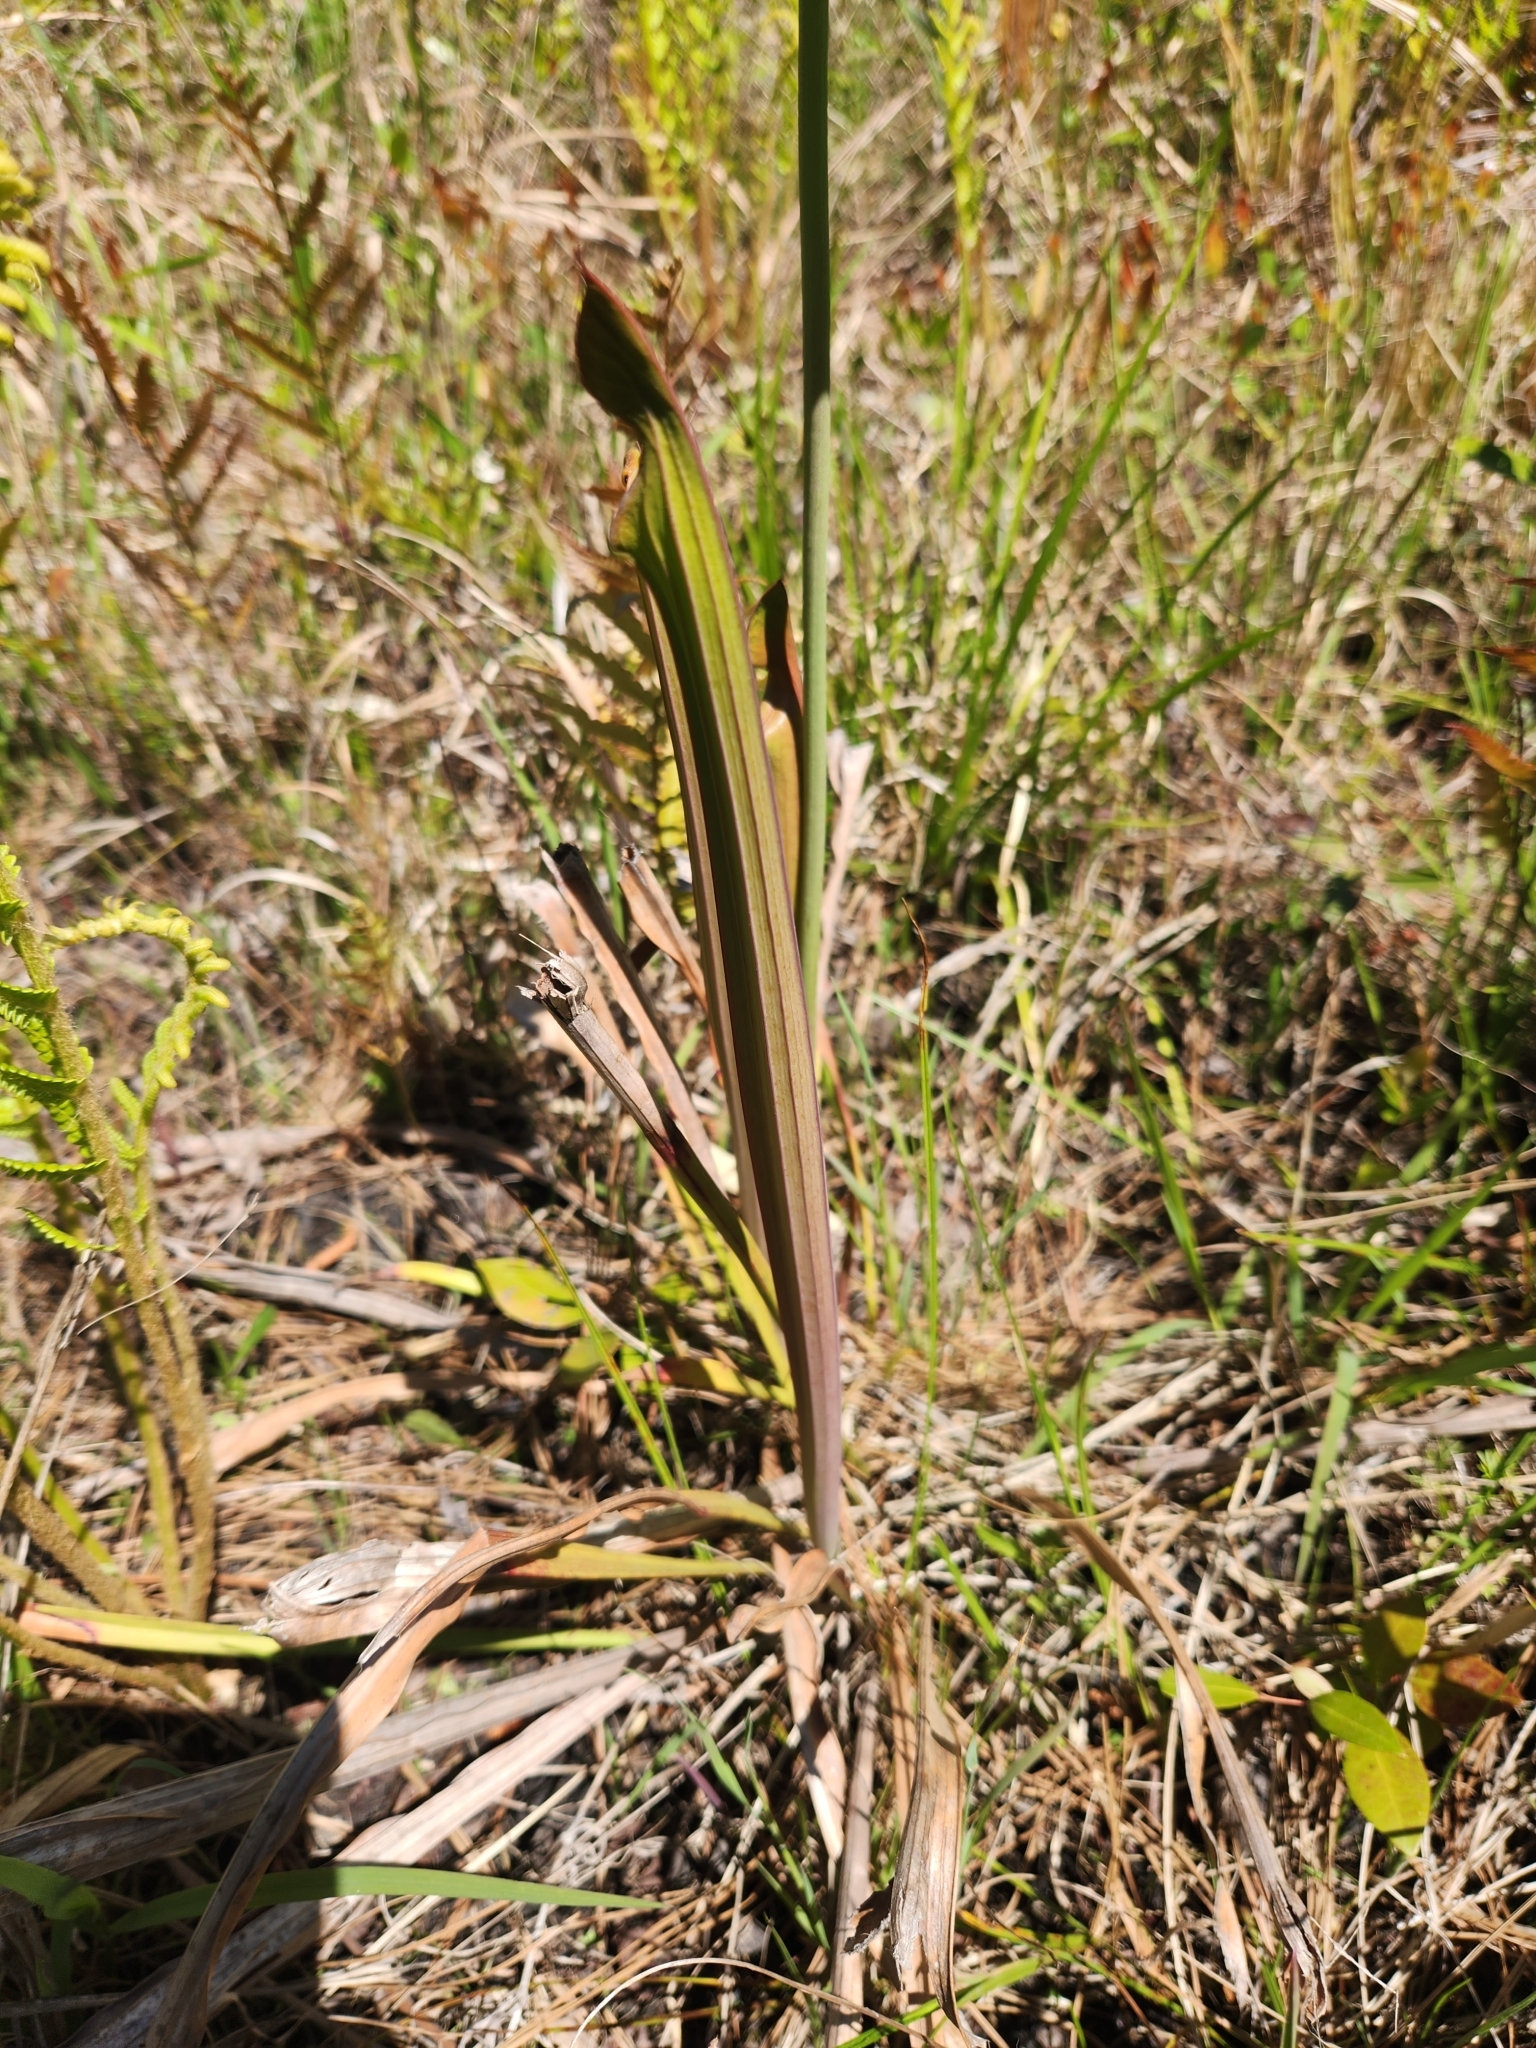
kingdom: Plantae
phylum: Tracheophyta
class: Magnoliopsida
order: Ericales
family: Sarraceniaceae
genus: Sarracenia
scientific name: Sarracenia flava
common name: Trumpets
